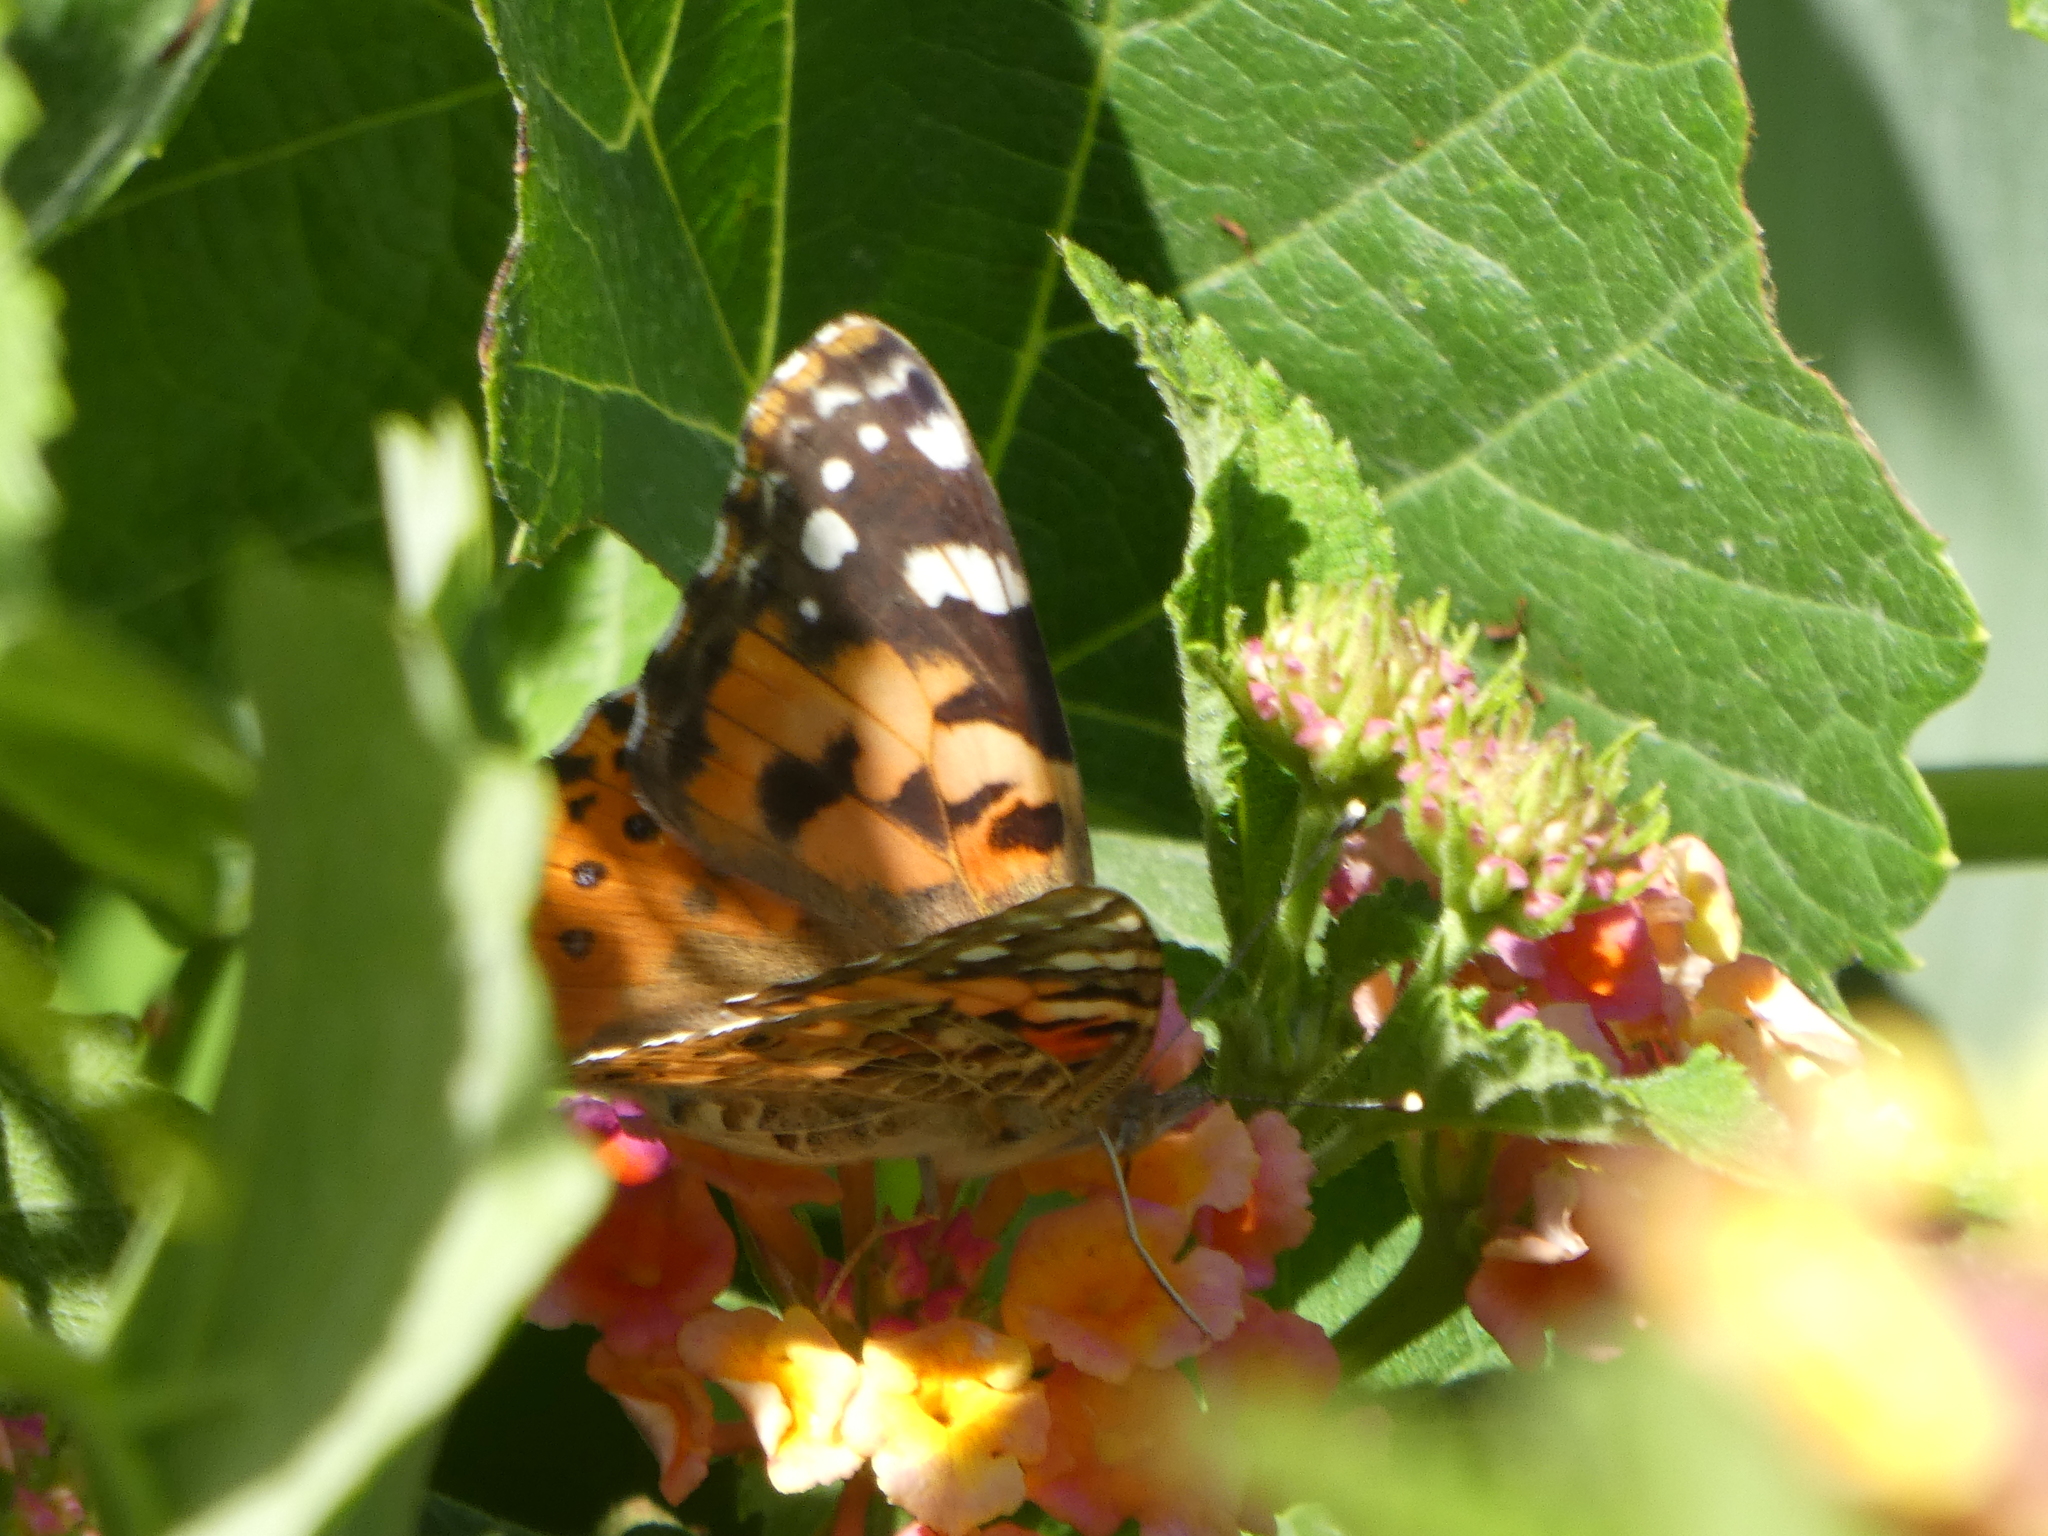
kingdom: Animalia
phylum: Arthropoda
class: Insecta
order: Lepidoptera
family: Nymphalidae
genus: Vanessa
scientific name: Vanessa cardui
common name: Painted lady
